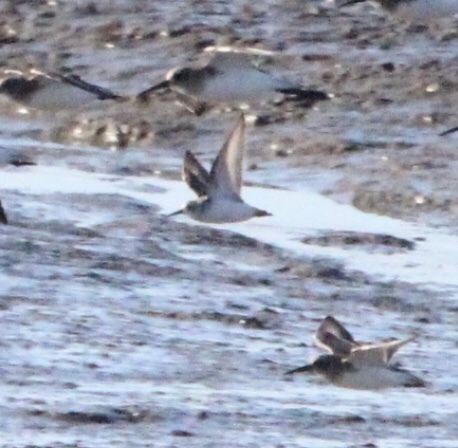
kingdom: Animalia
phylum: Chordata
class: Aves
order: Charadriiformes
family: Scolopacidae
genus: Calidris
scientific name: Calidris alba
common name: Sanderling
